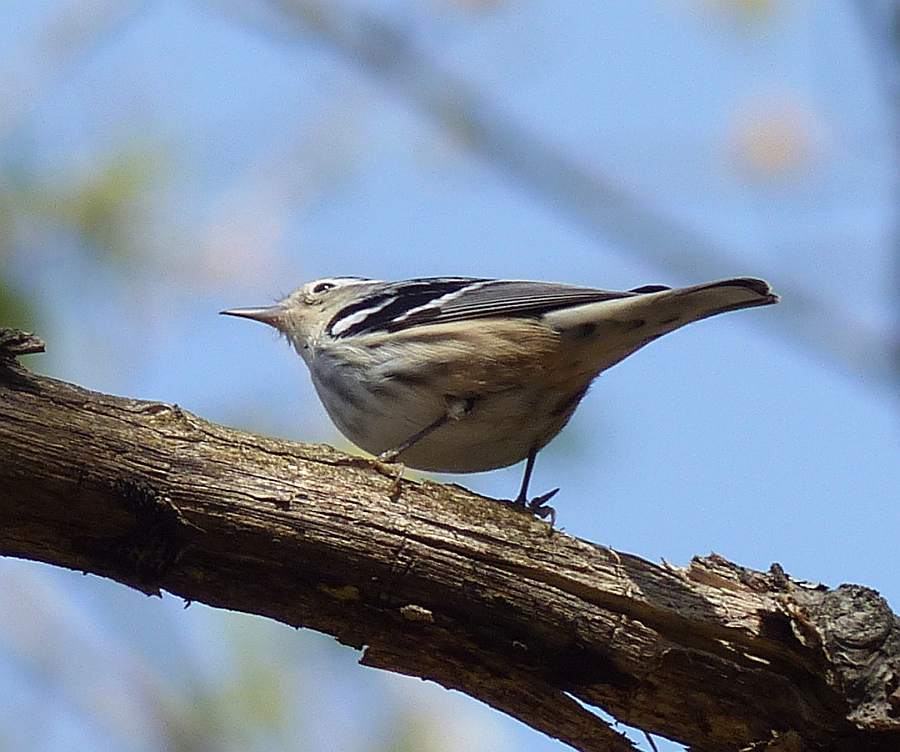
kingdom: Animalia
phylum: Chordata
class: Aves
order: Passeriformes
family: Parulidae
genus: Mniotilta
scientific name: Mniotilta varia
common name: Black-and-white warbler
